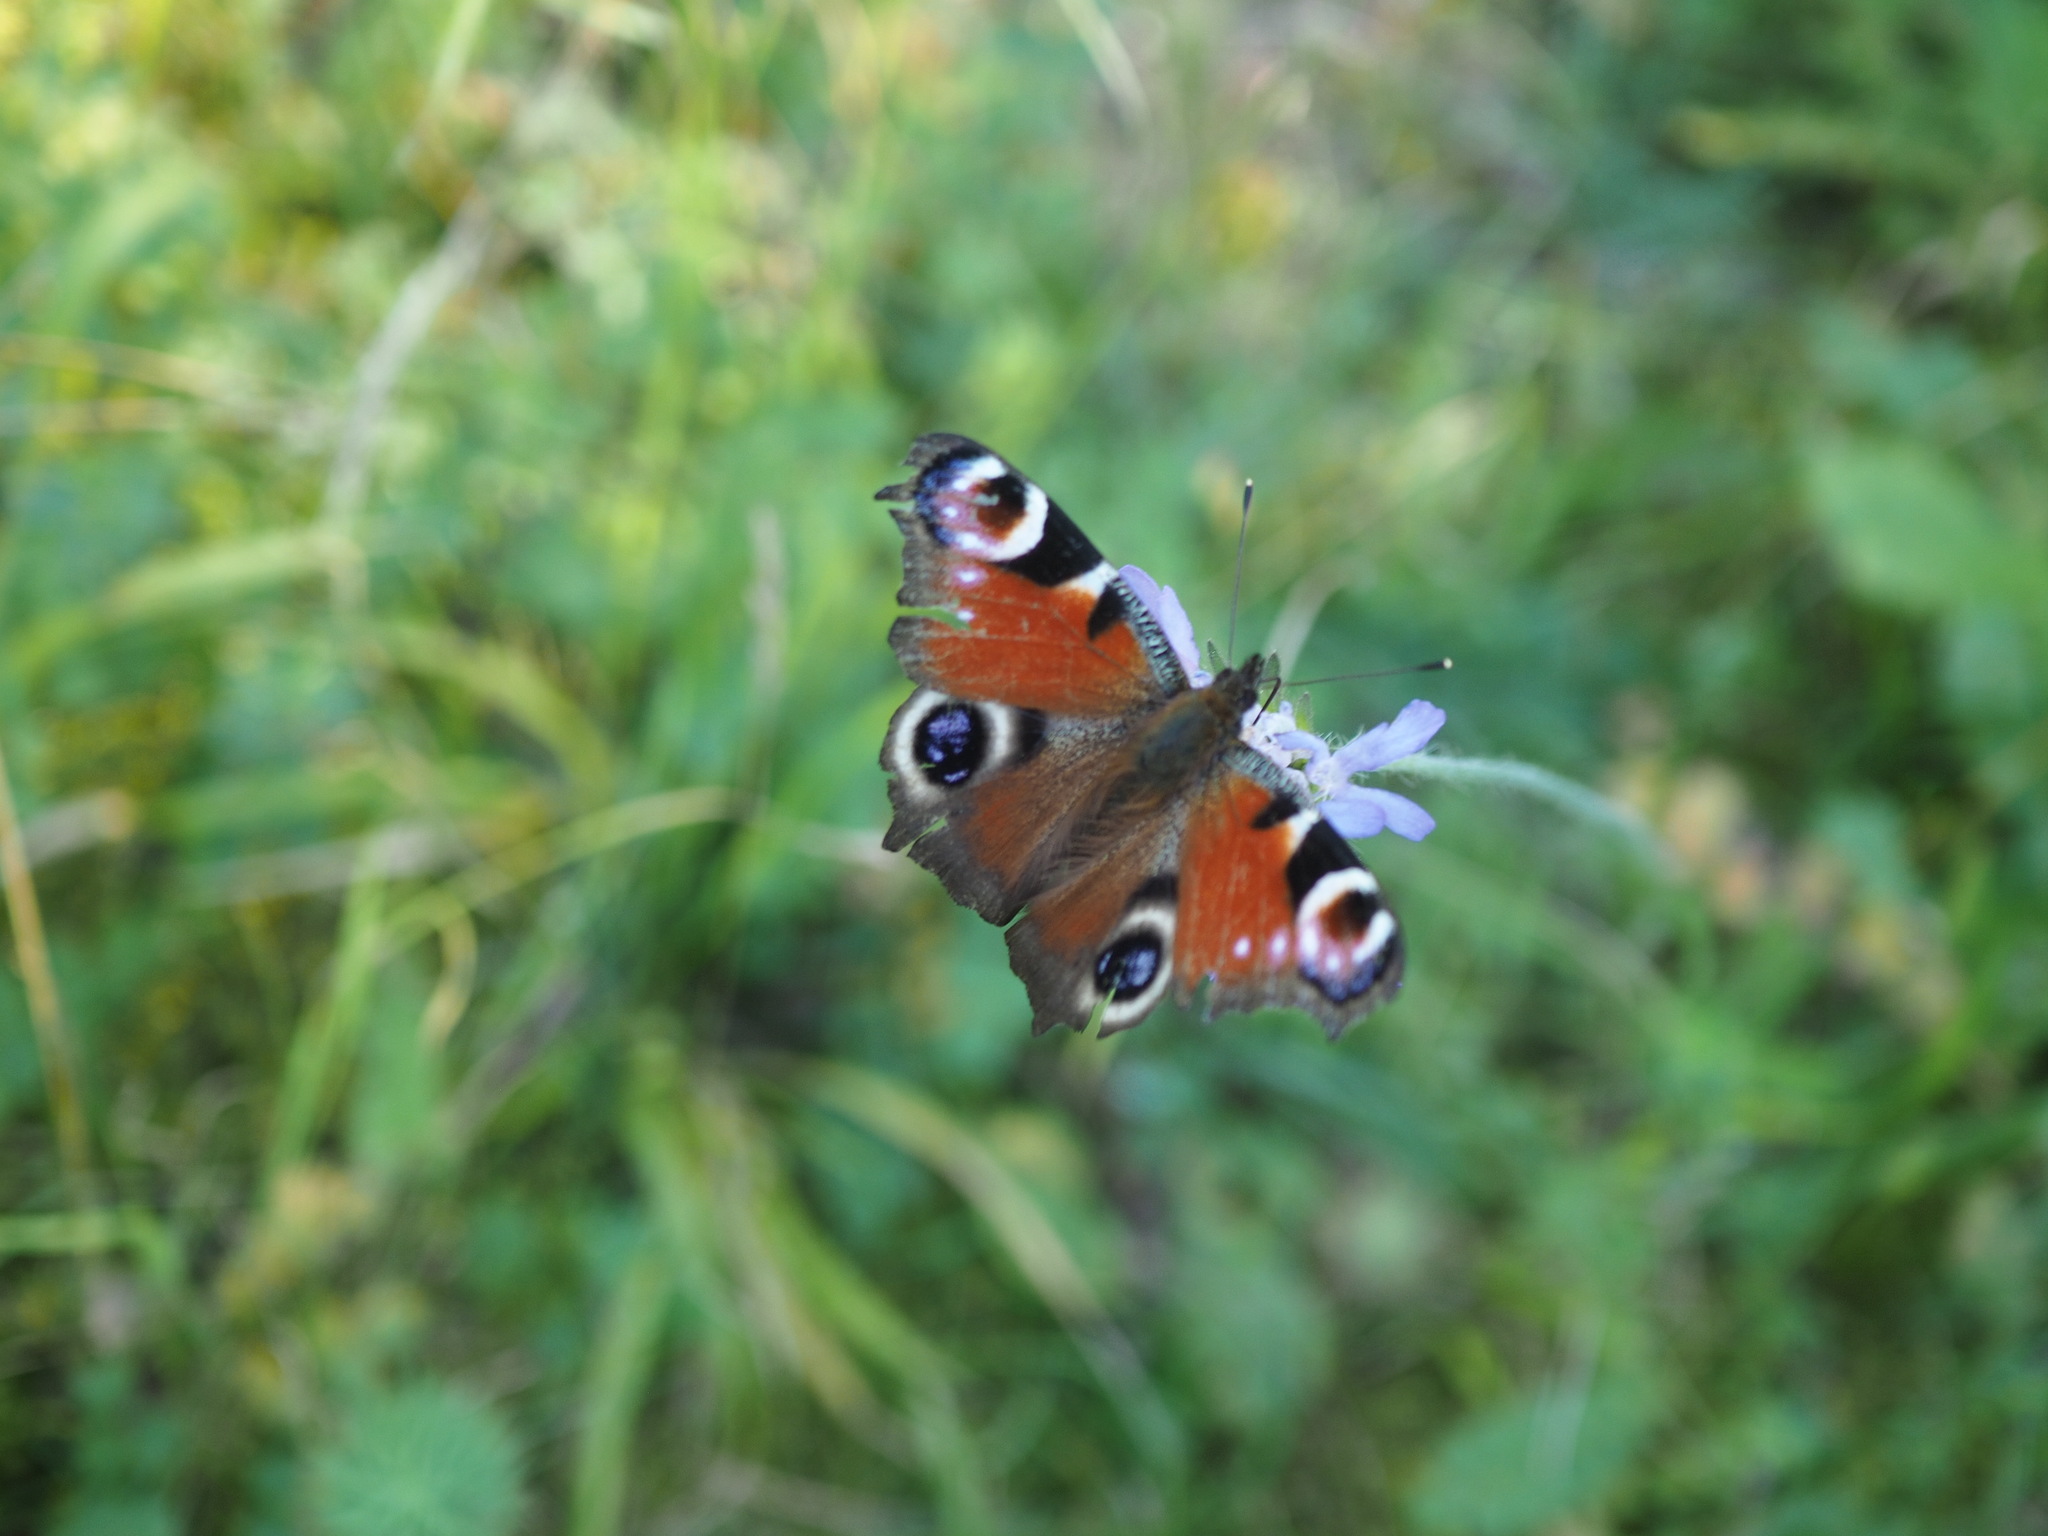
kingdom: Animalia
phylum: Arthropoda
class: Insecta
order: Lepidoptera
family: Nymphalidae
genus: Aglais
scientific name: Aglais io
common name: Peacock
